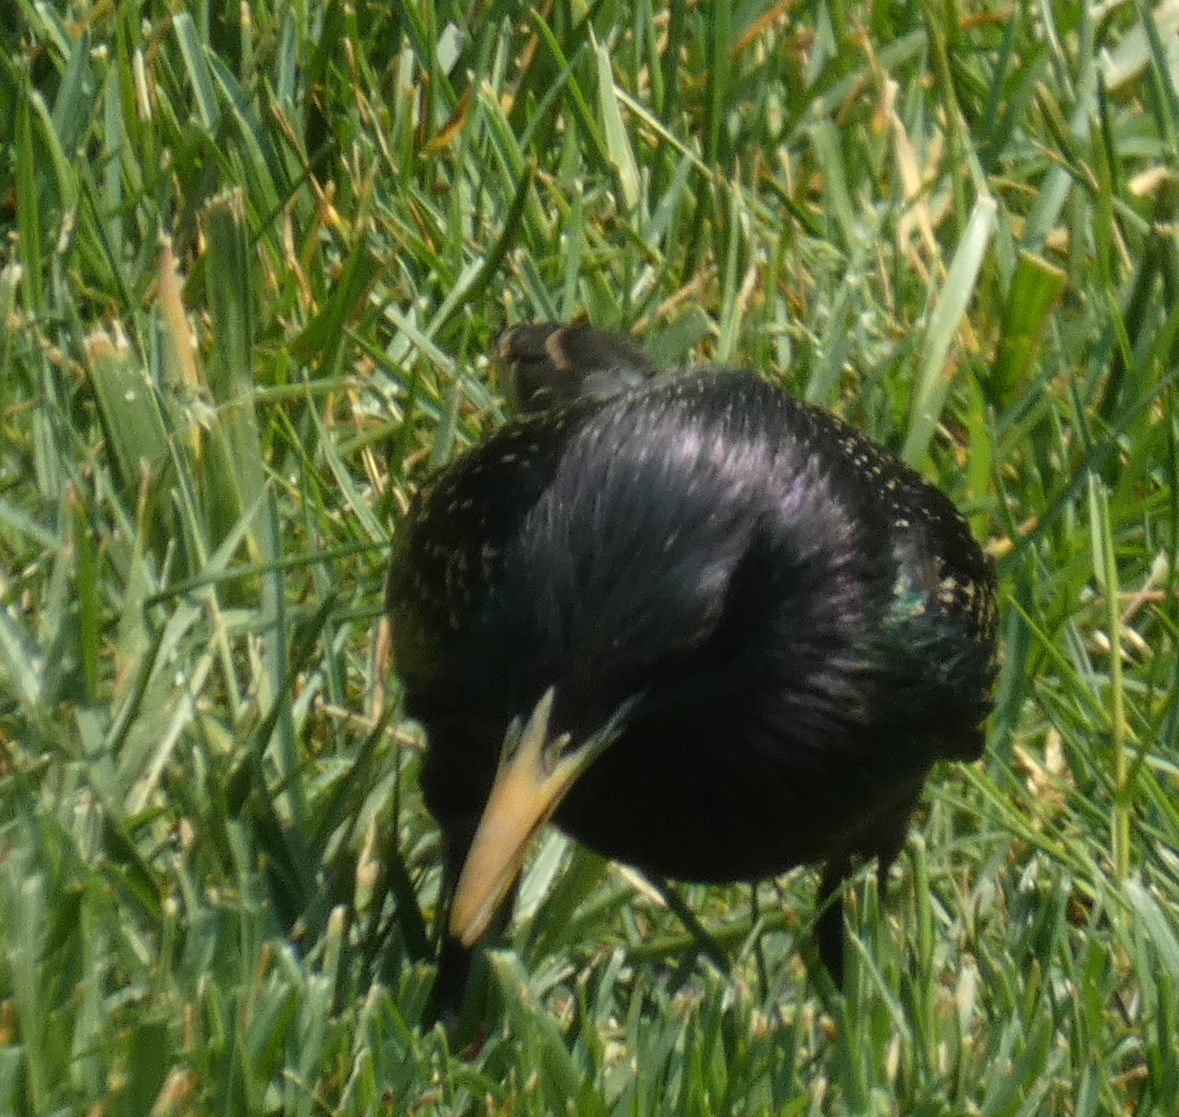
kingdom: Animalia
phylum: Chordata
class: Aves
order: Passeriformes
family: Sturnidae
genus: Sturnus
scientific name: Sturnus vulgaris
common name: Common starling
